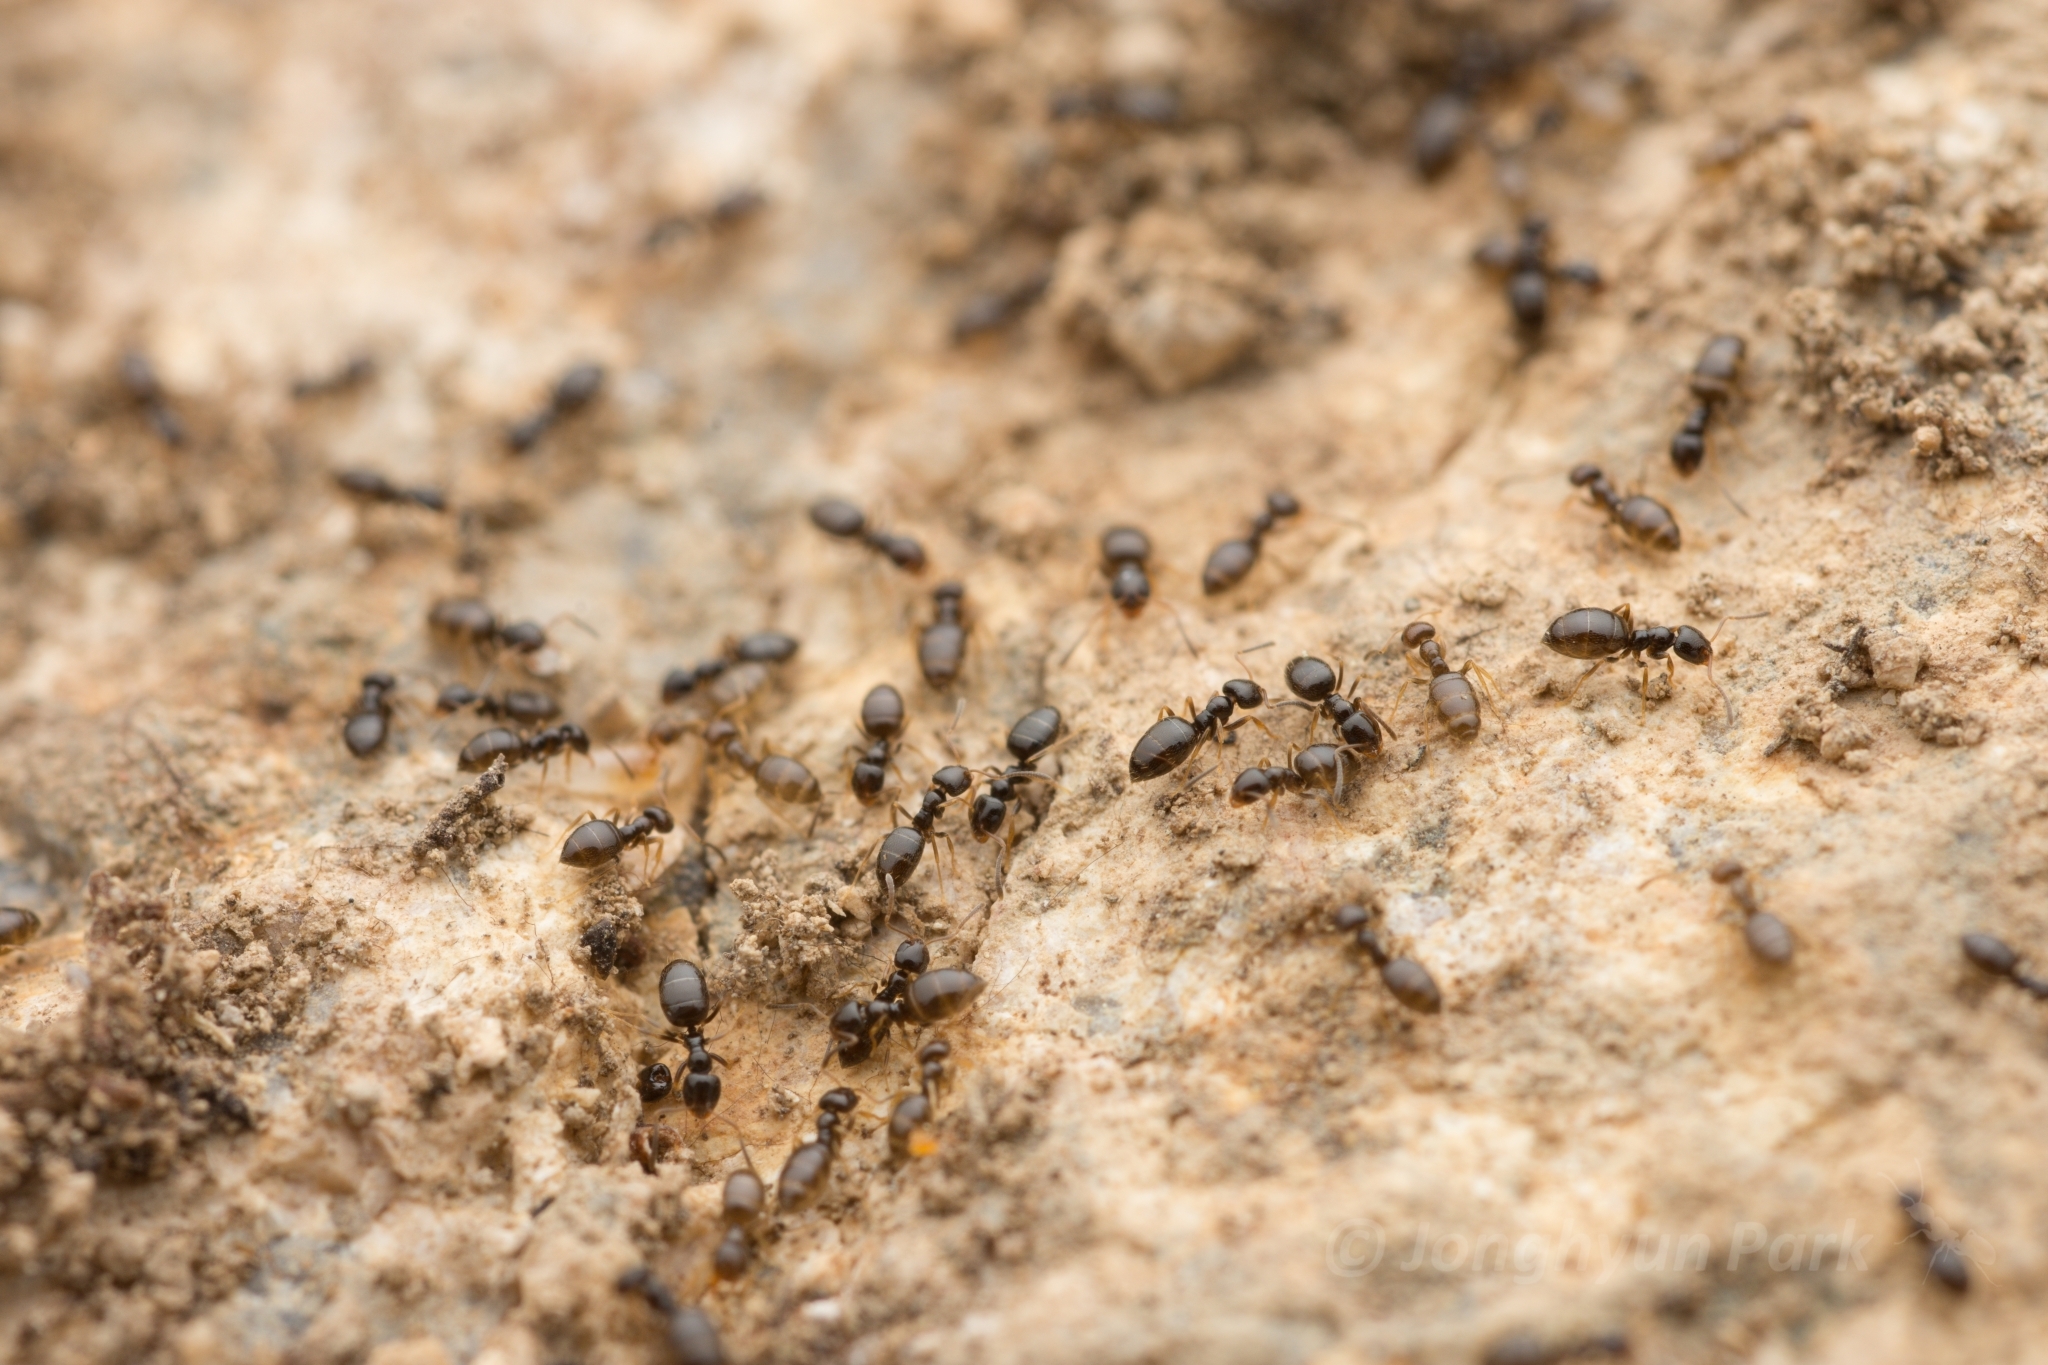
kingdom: Animalia
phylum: Arthropoda
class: Insecta
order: Hymenoptera
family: Formicidae
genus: Plagiolepis
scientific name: Plagiolepis manczshurica
